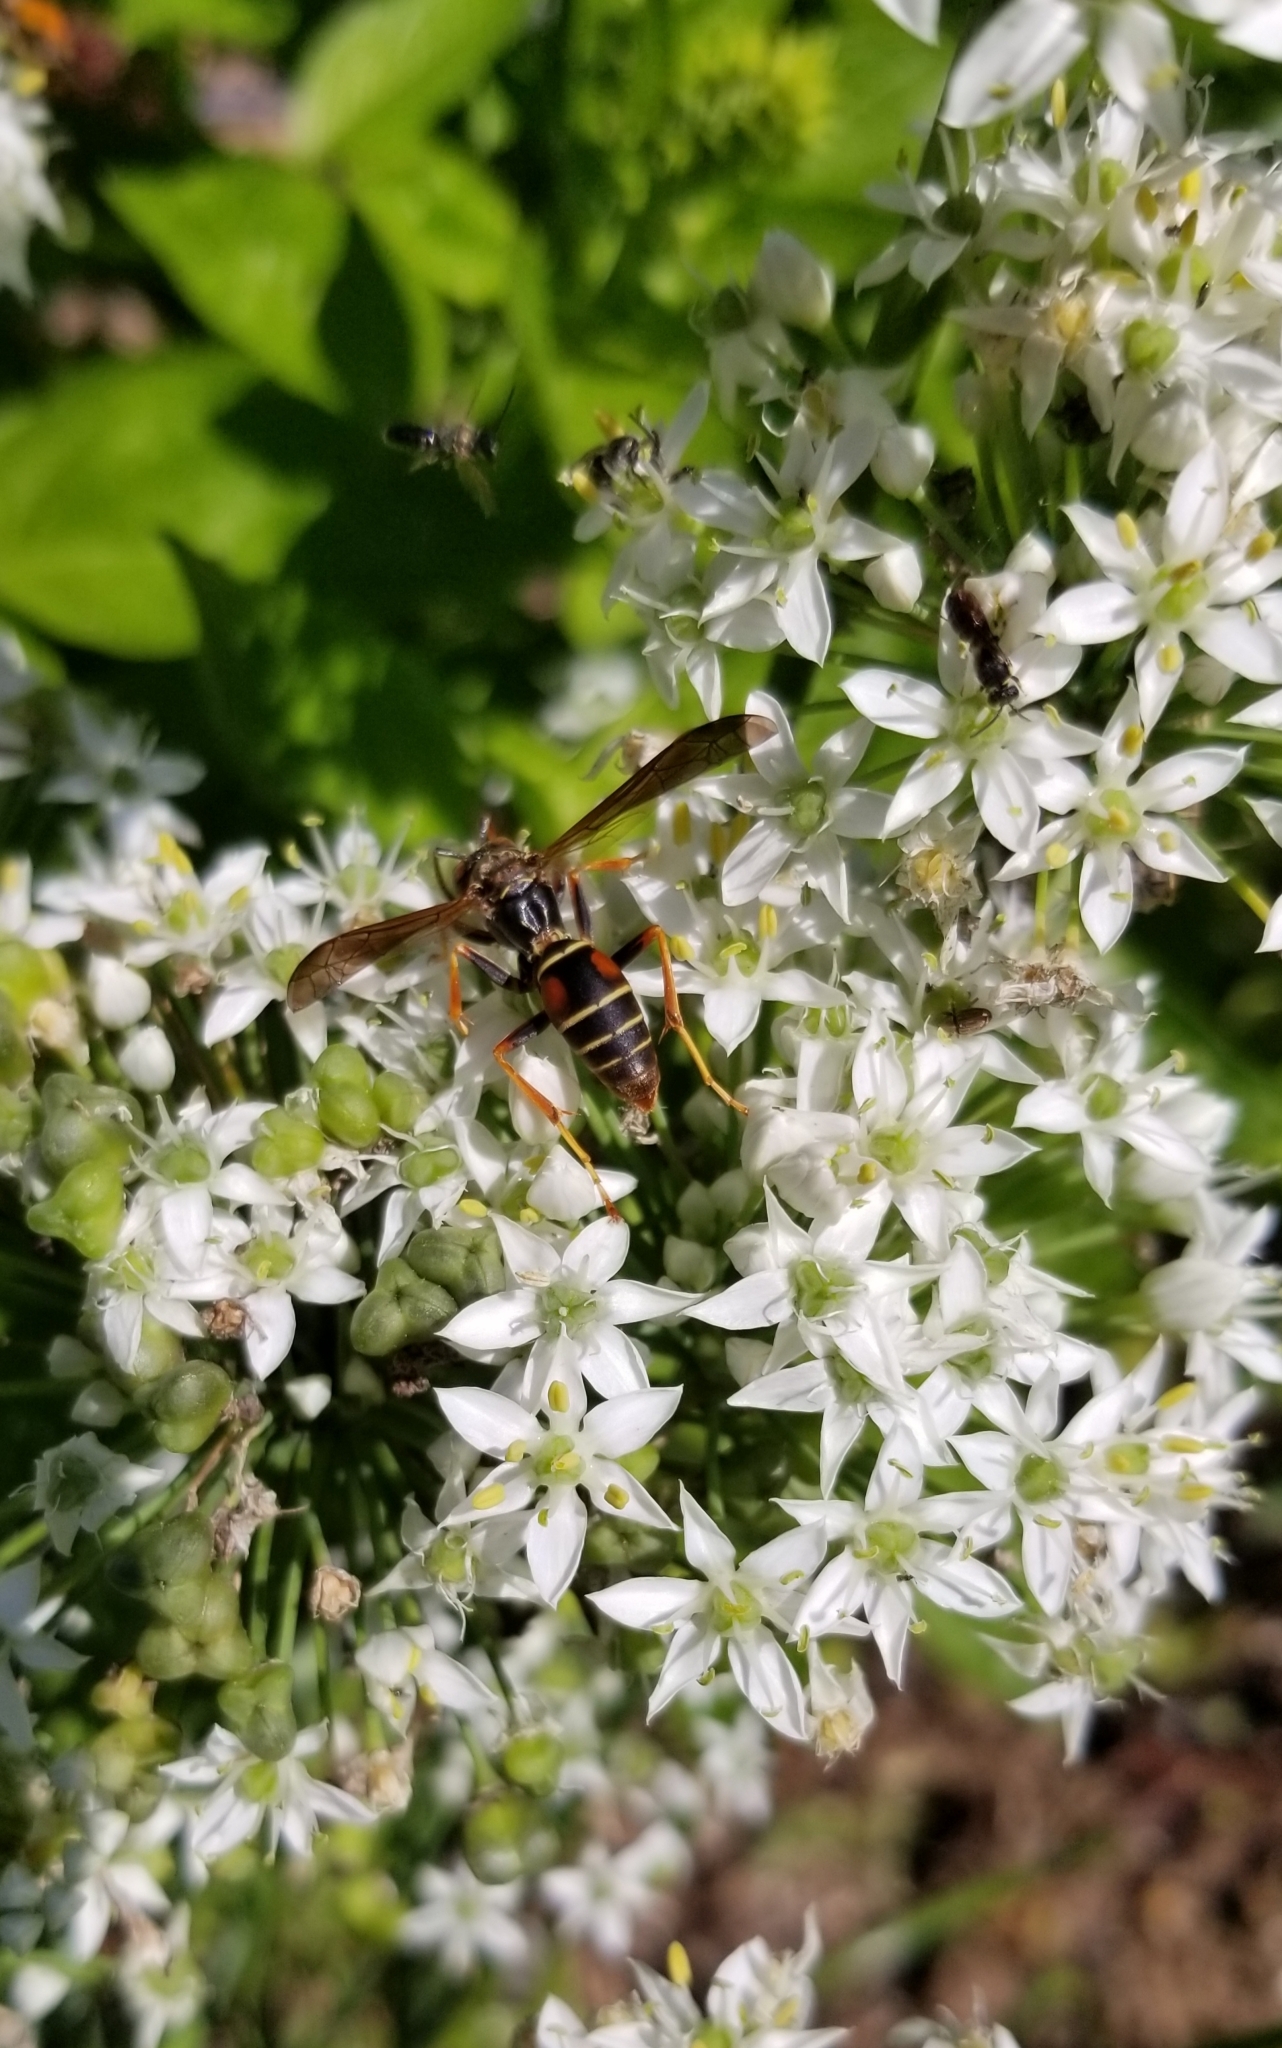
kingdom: Animalia
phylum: Arthropoda
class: Insecta
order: Hymenoptera
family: Eumenidae
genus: Polistes
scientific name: Polistes fuscatus
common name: Dark paper wasp
